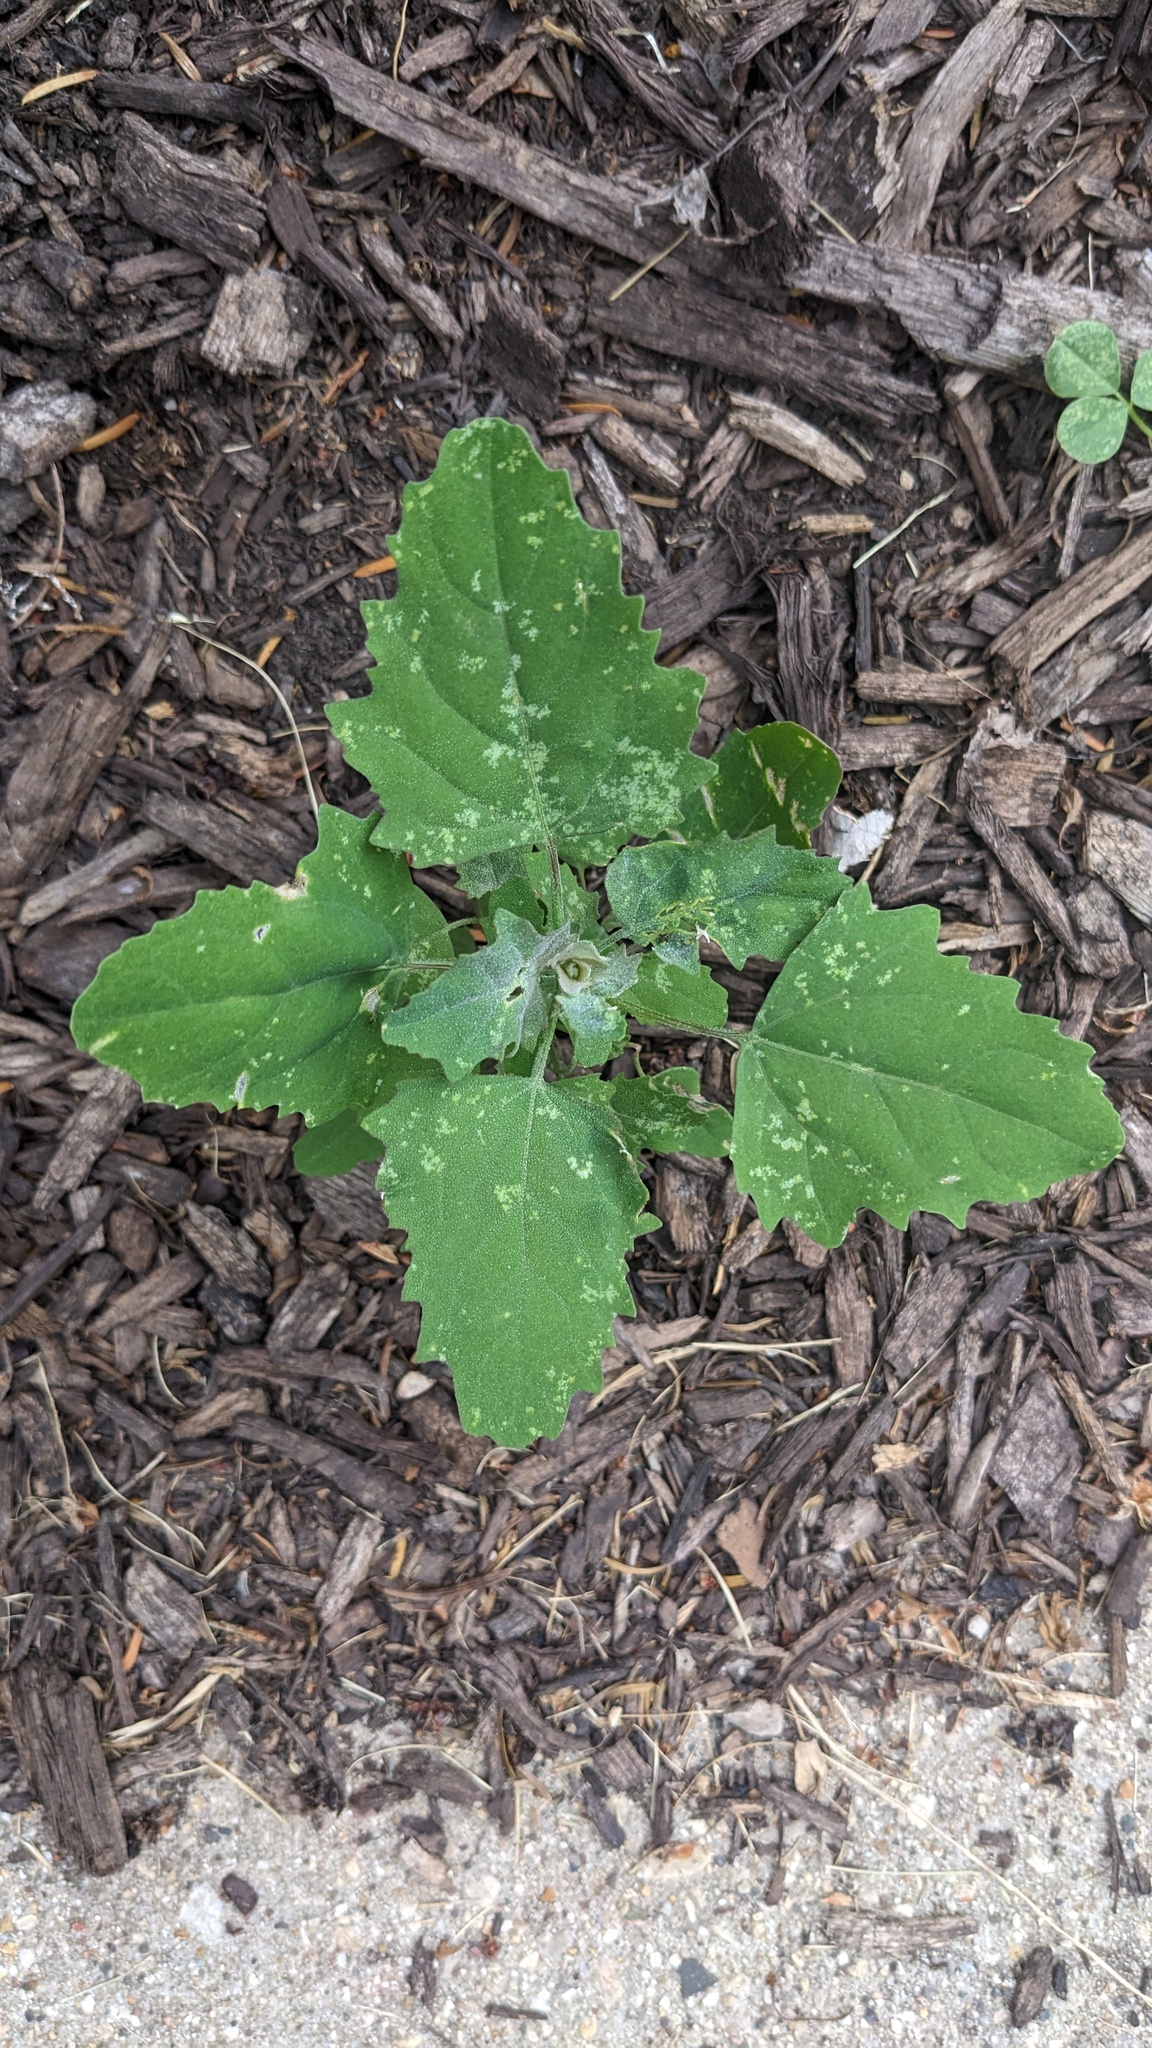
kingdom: Plantae
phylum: Tracheophyta
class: Magnoliopsida
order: Caryophyllales
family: Amaranthaceae
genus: Chenopodium
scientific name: Chenopodium album
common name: Fat-hen
